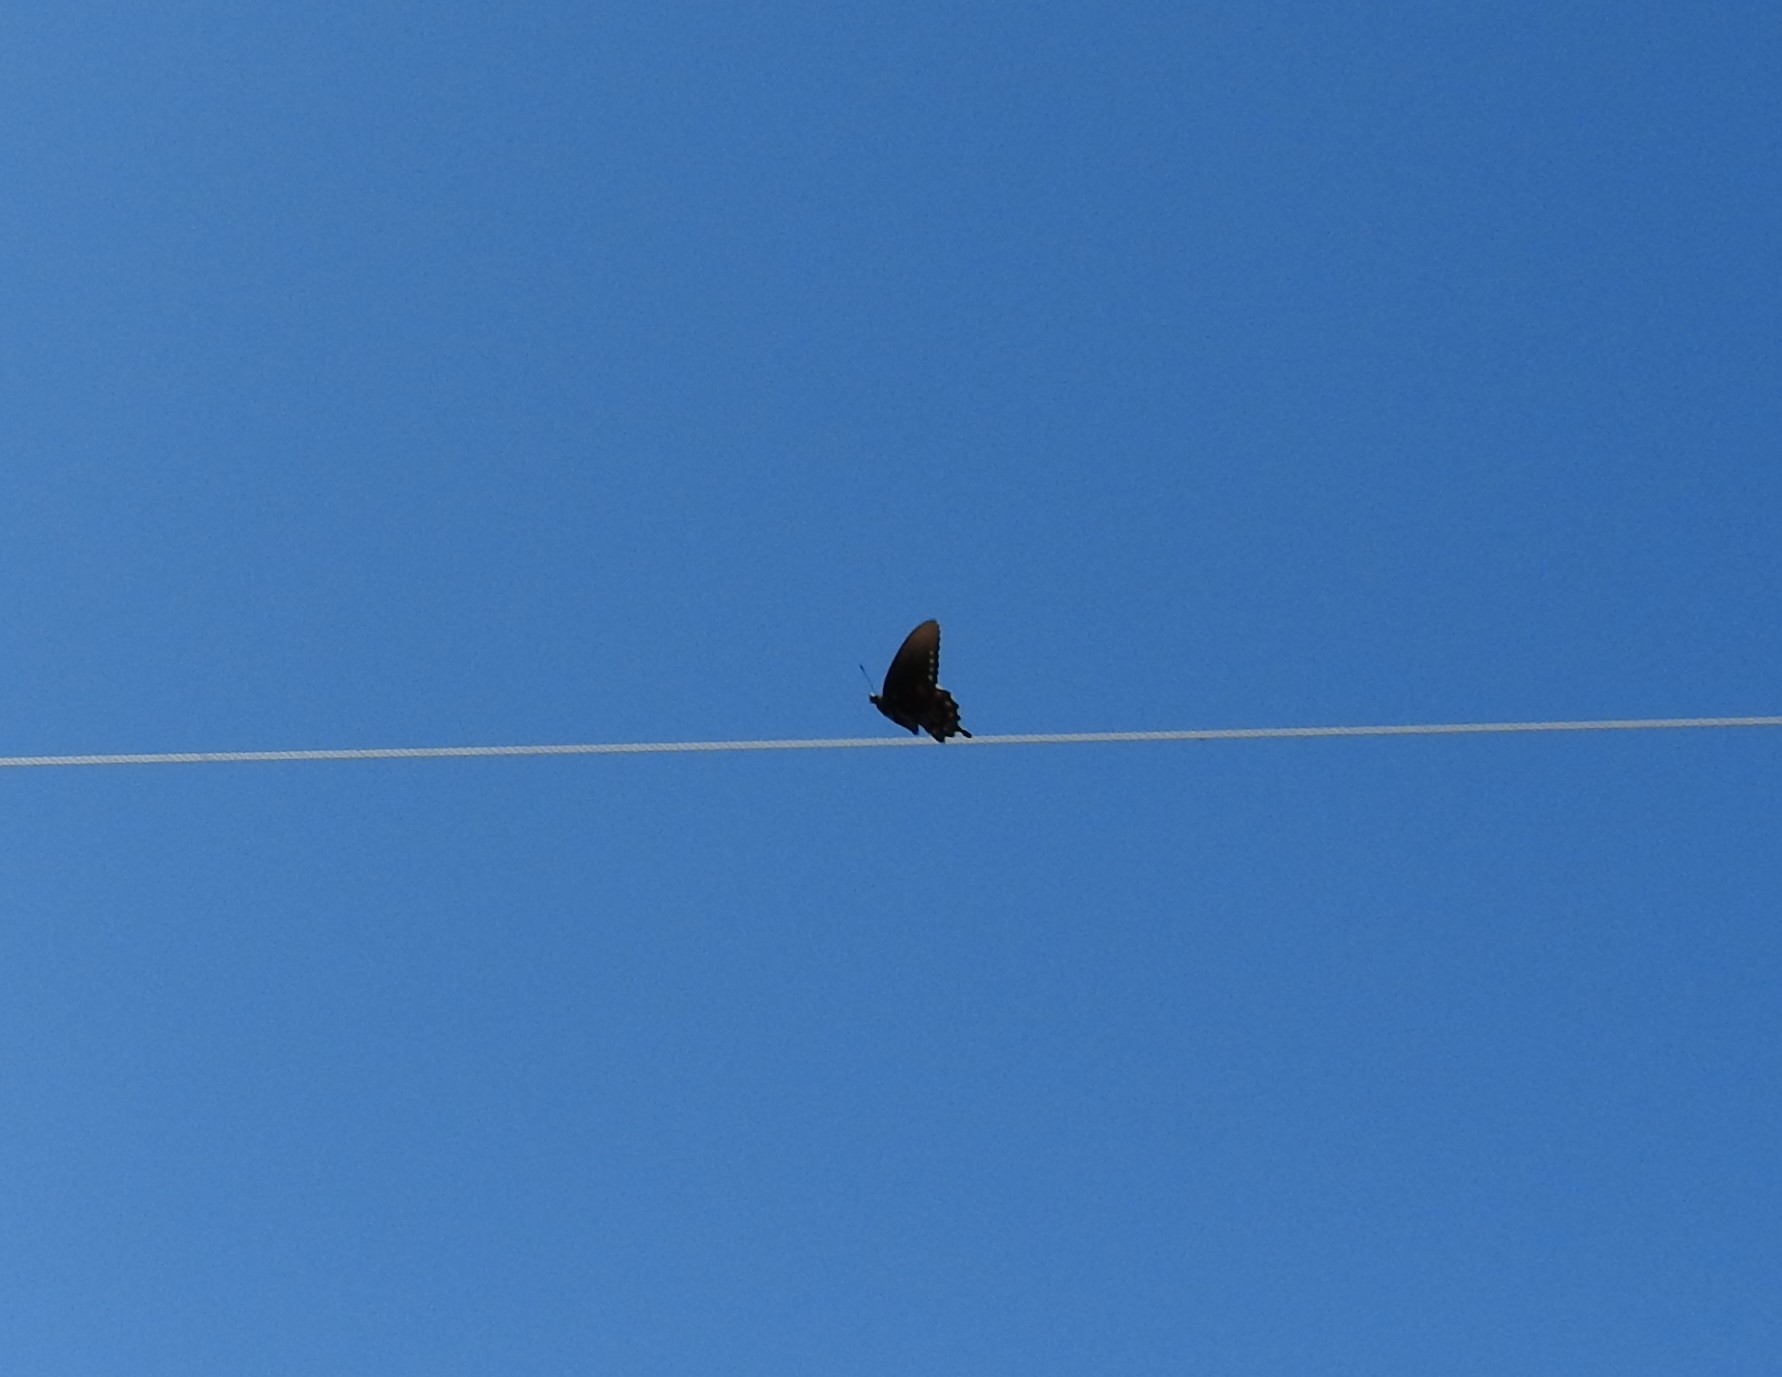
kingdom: Animalia
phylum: Arthropoda
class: Insecta
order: Lepidoptera
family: Papilionidae
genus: Battus
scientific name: Battus philenor
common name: Pipevine swallowtail
